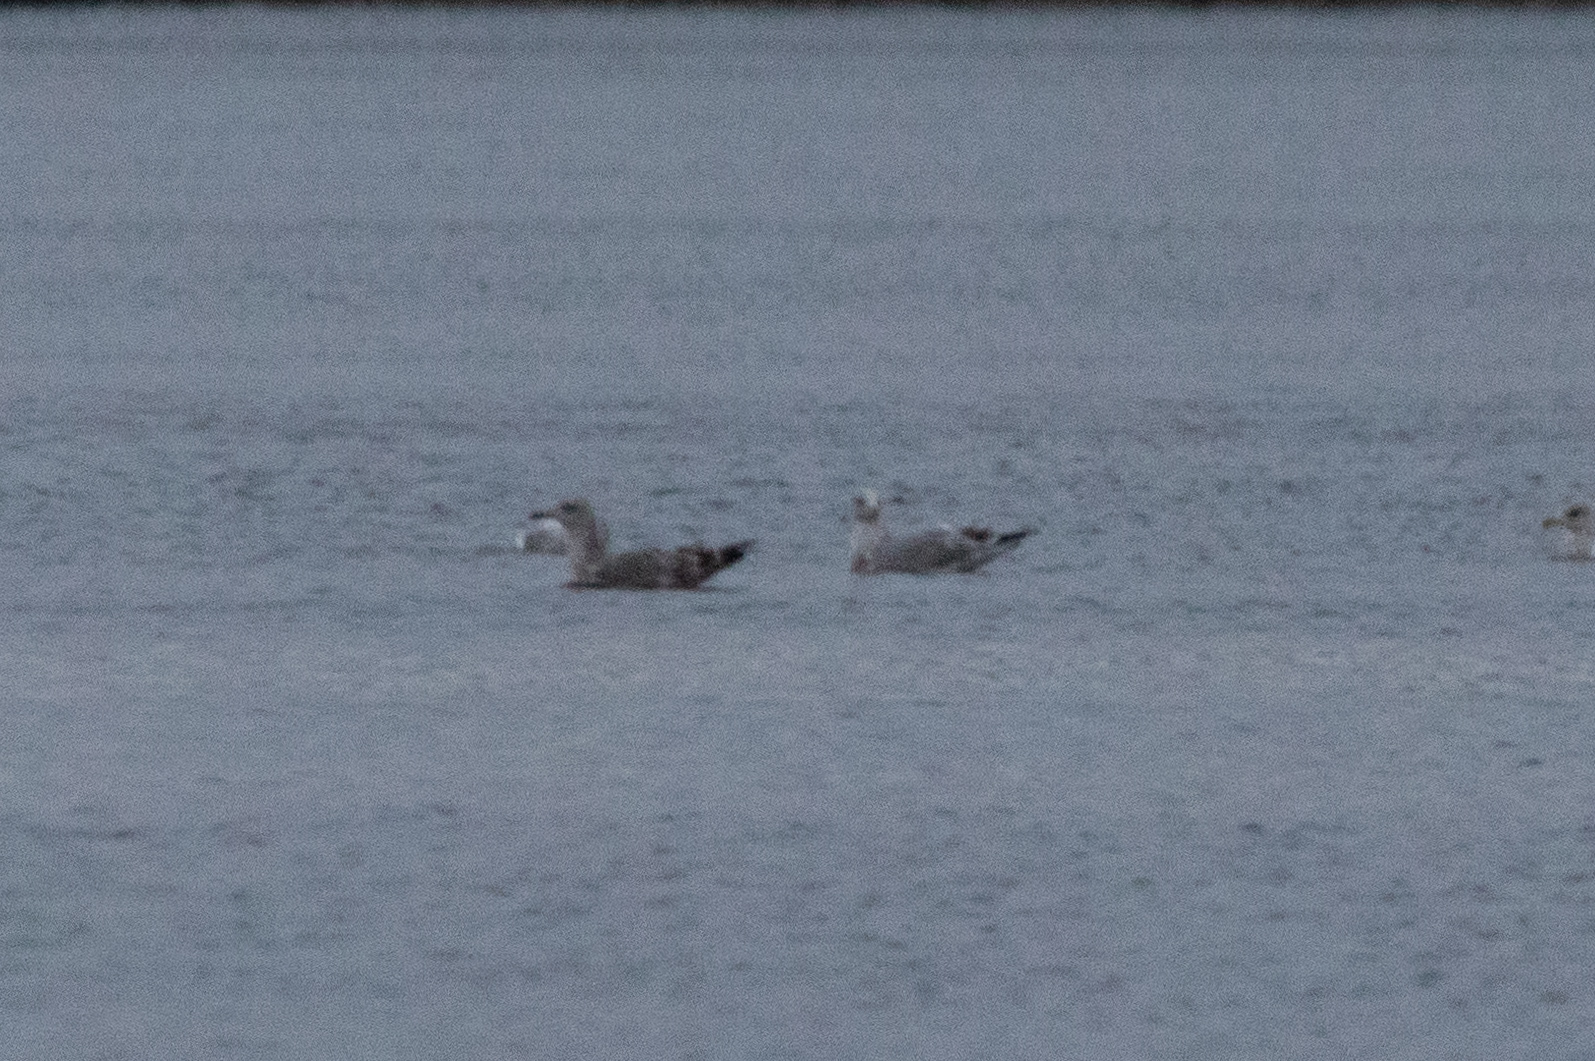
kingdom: Animalia
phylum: Chordata
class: Aves
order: Charadriiformes
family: Laridae
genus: Larus
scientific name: Larus argentatus
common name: Herring gull
